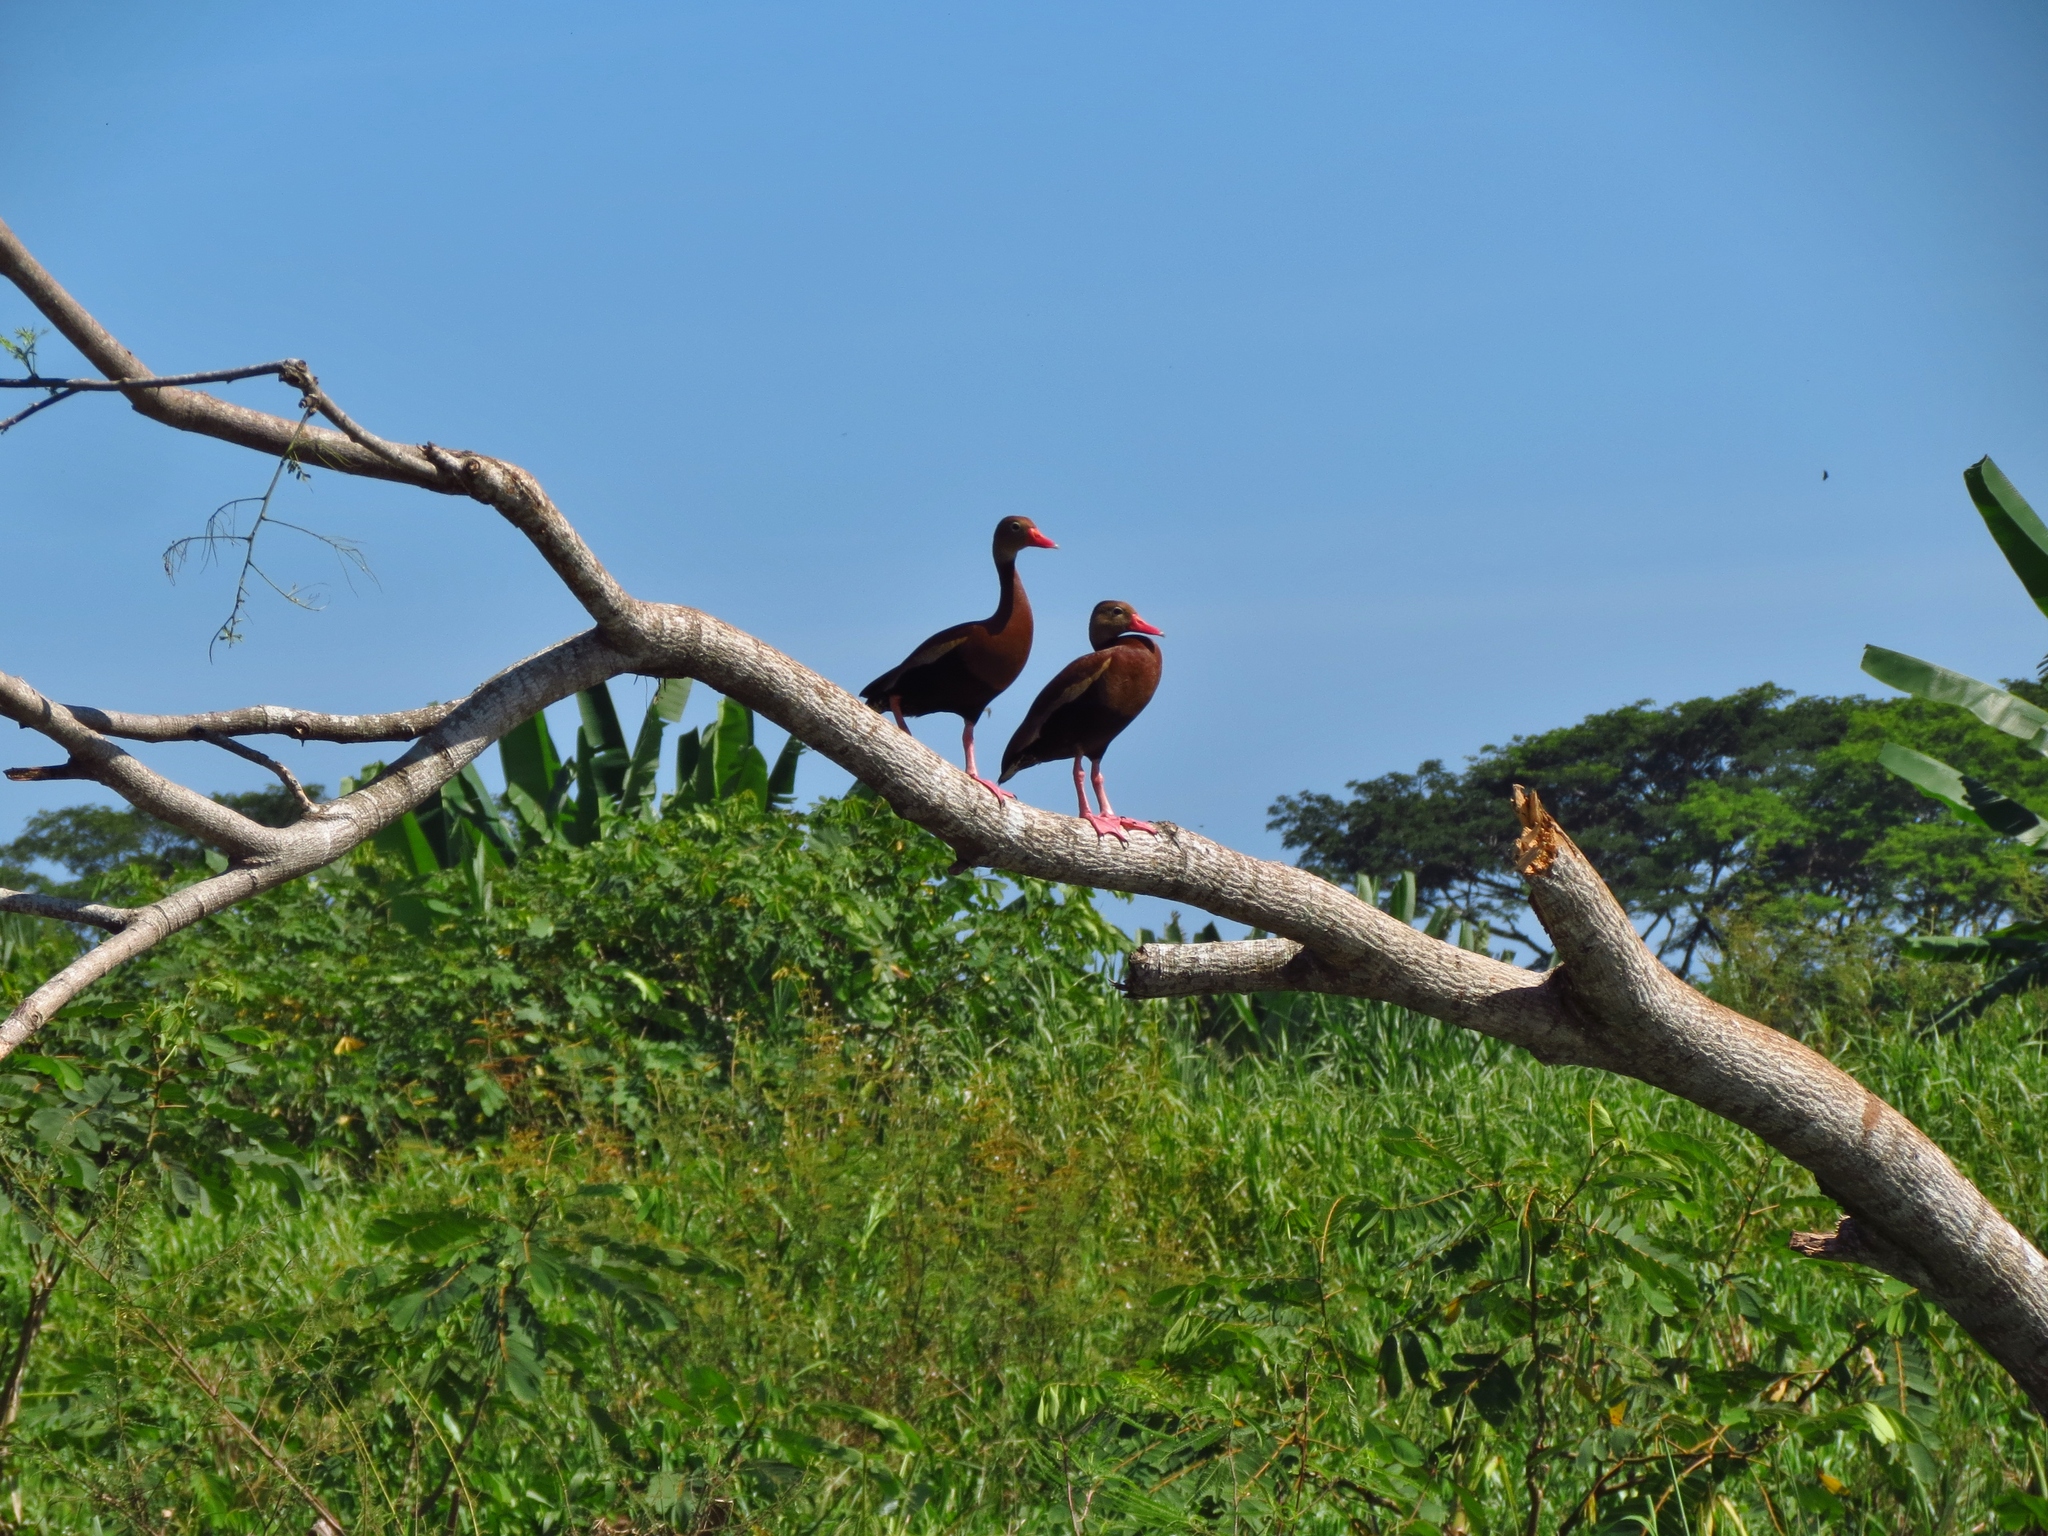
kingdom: Animalia
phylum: Chordata
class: Aves
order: Anseriformes
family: Anatidae
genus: Dendrocygna
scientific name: Dendrocygna autumnalis
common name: Black-bellied whistling duck
